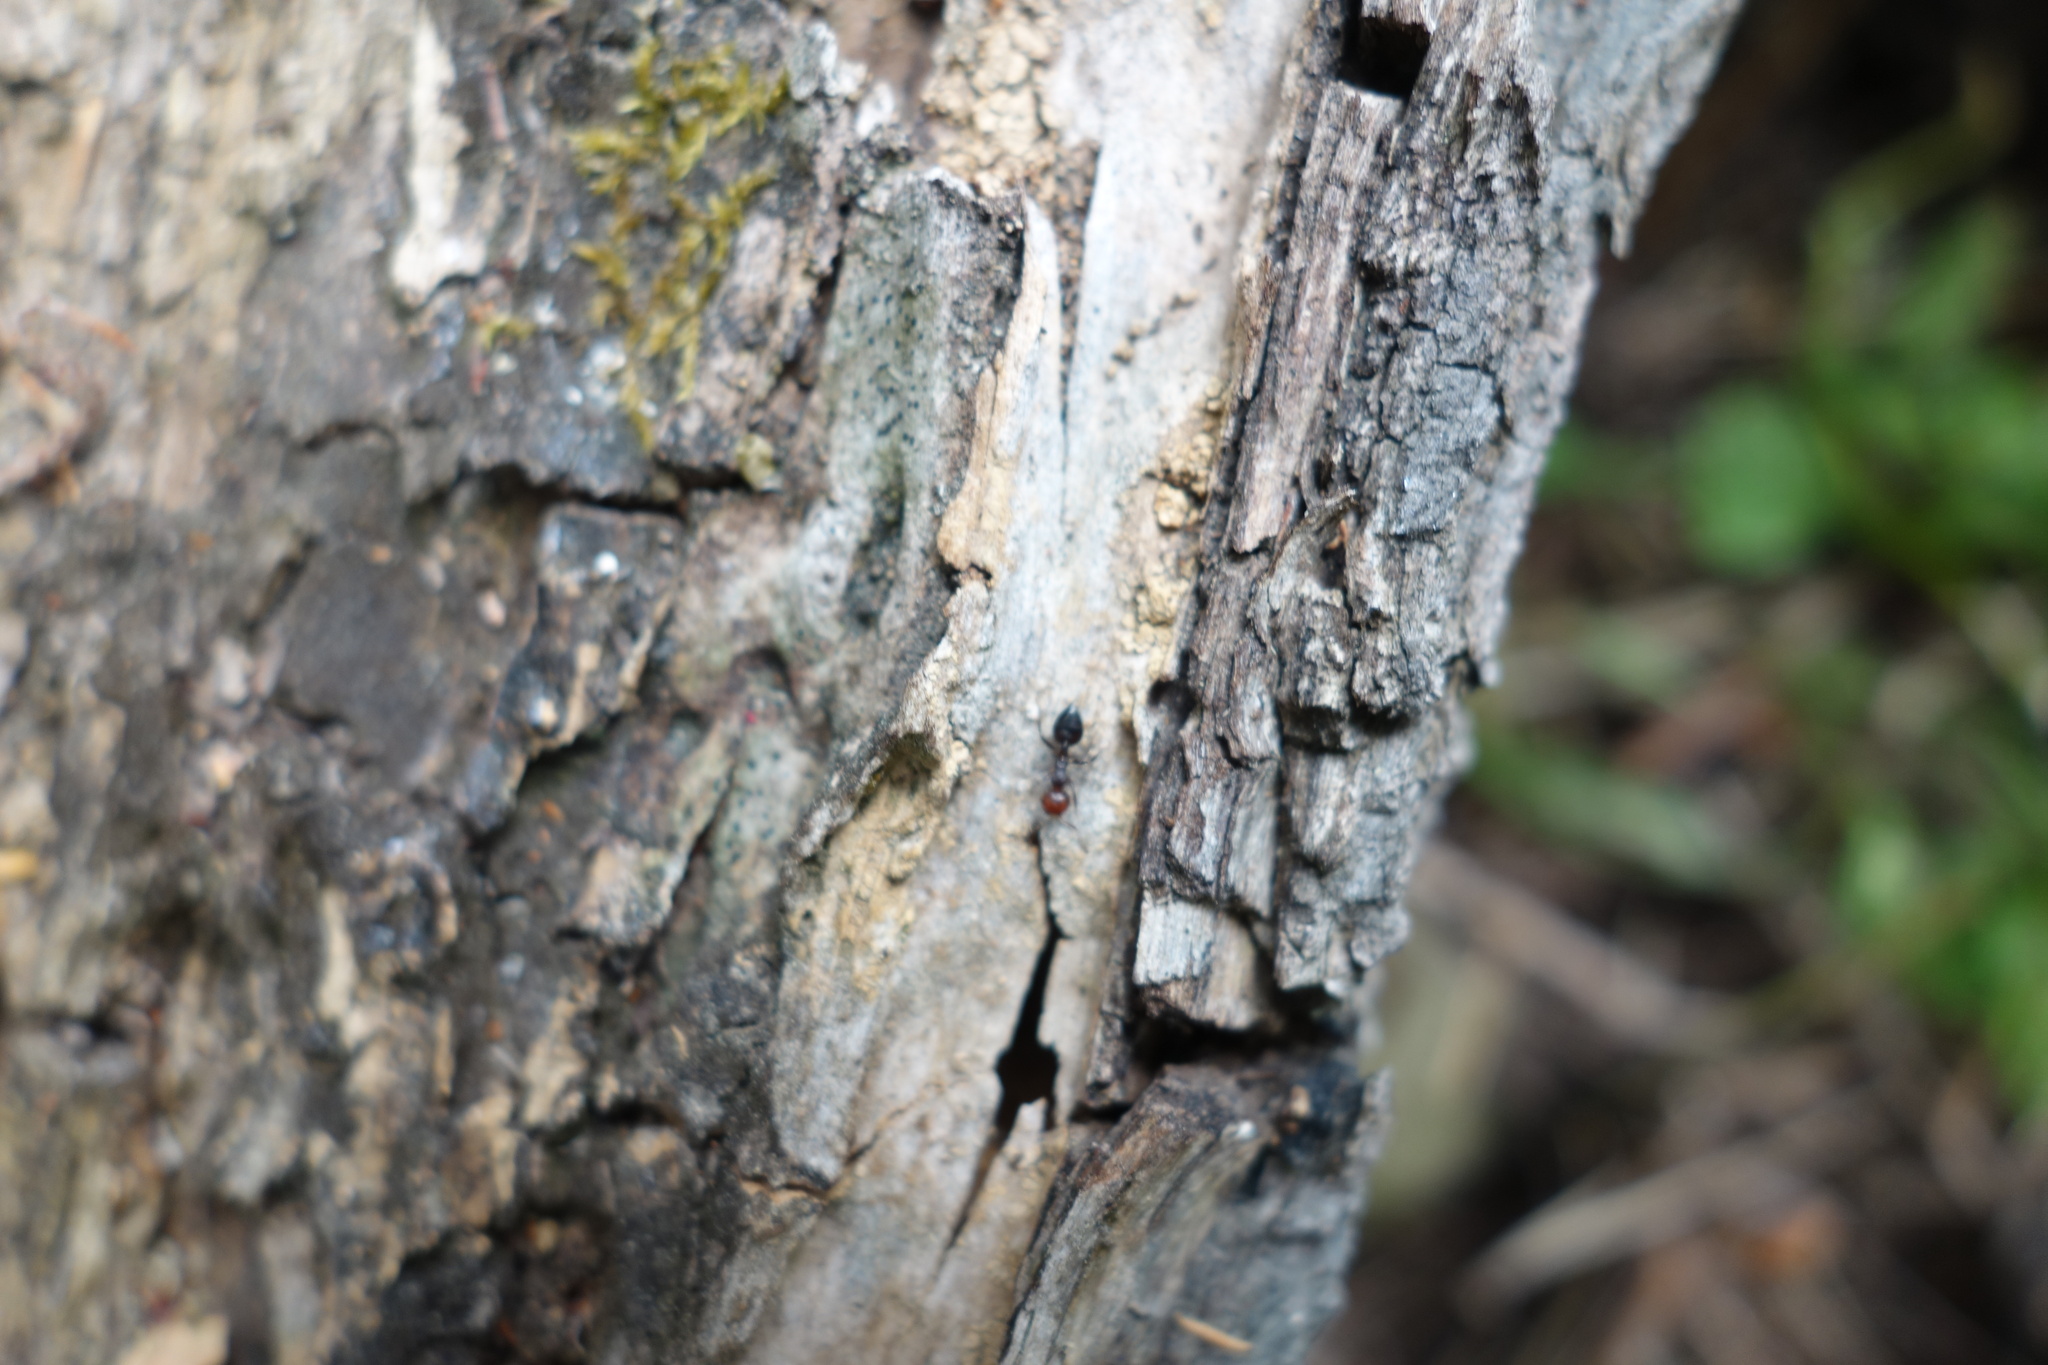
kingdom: Animalia
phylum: Arthropoda
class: Insecta
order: Hymenoptera
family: Formicidae
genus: Crematogaster
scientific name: Crematogaster scutellaris
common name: Fourmi du liège
